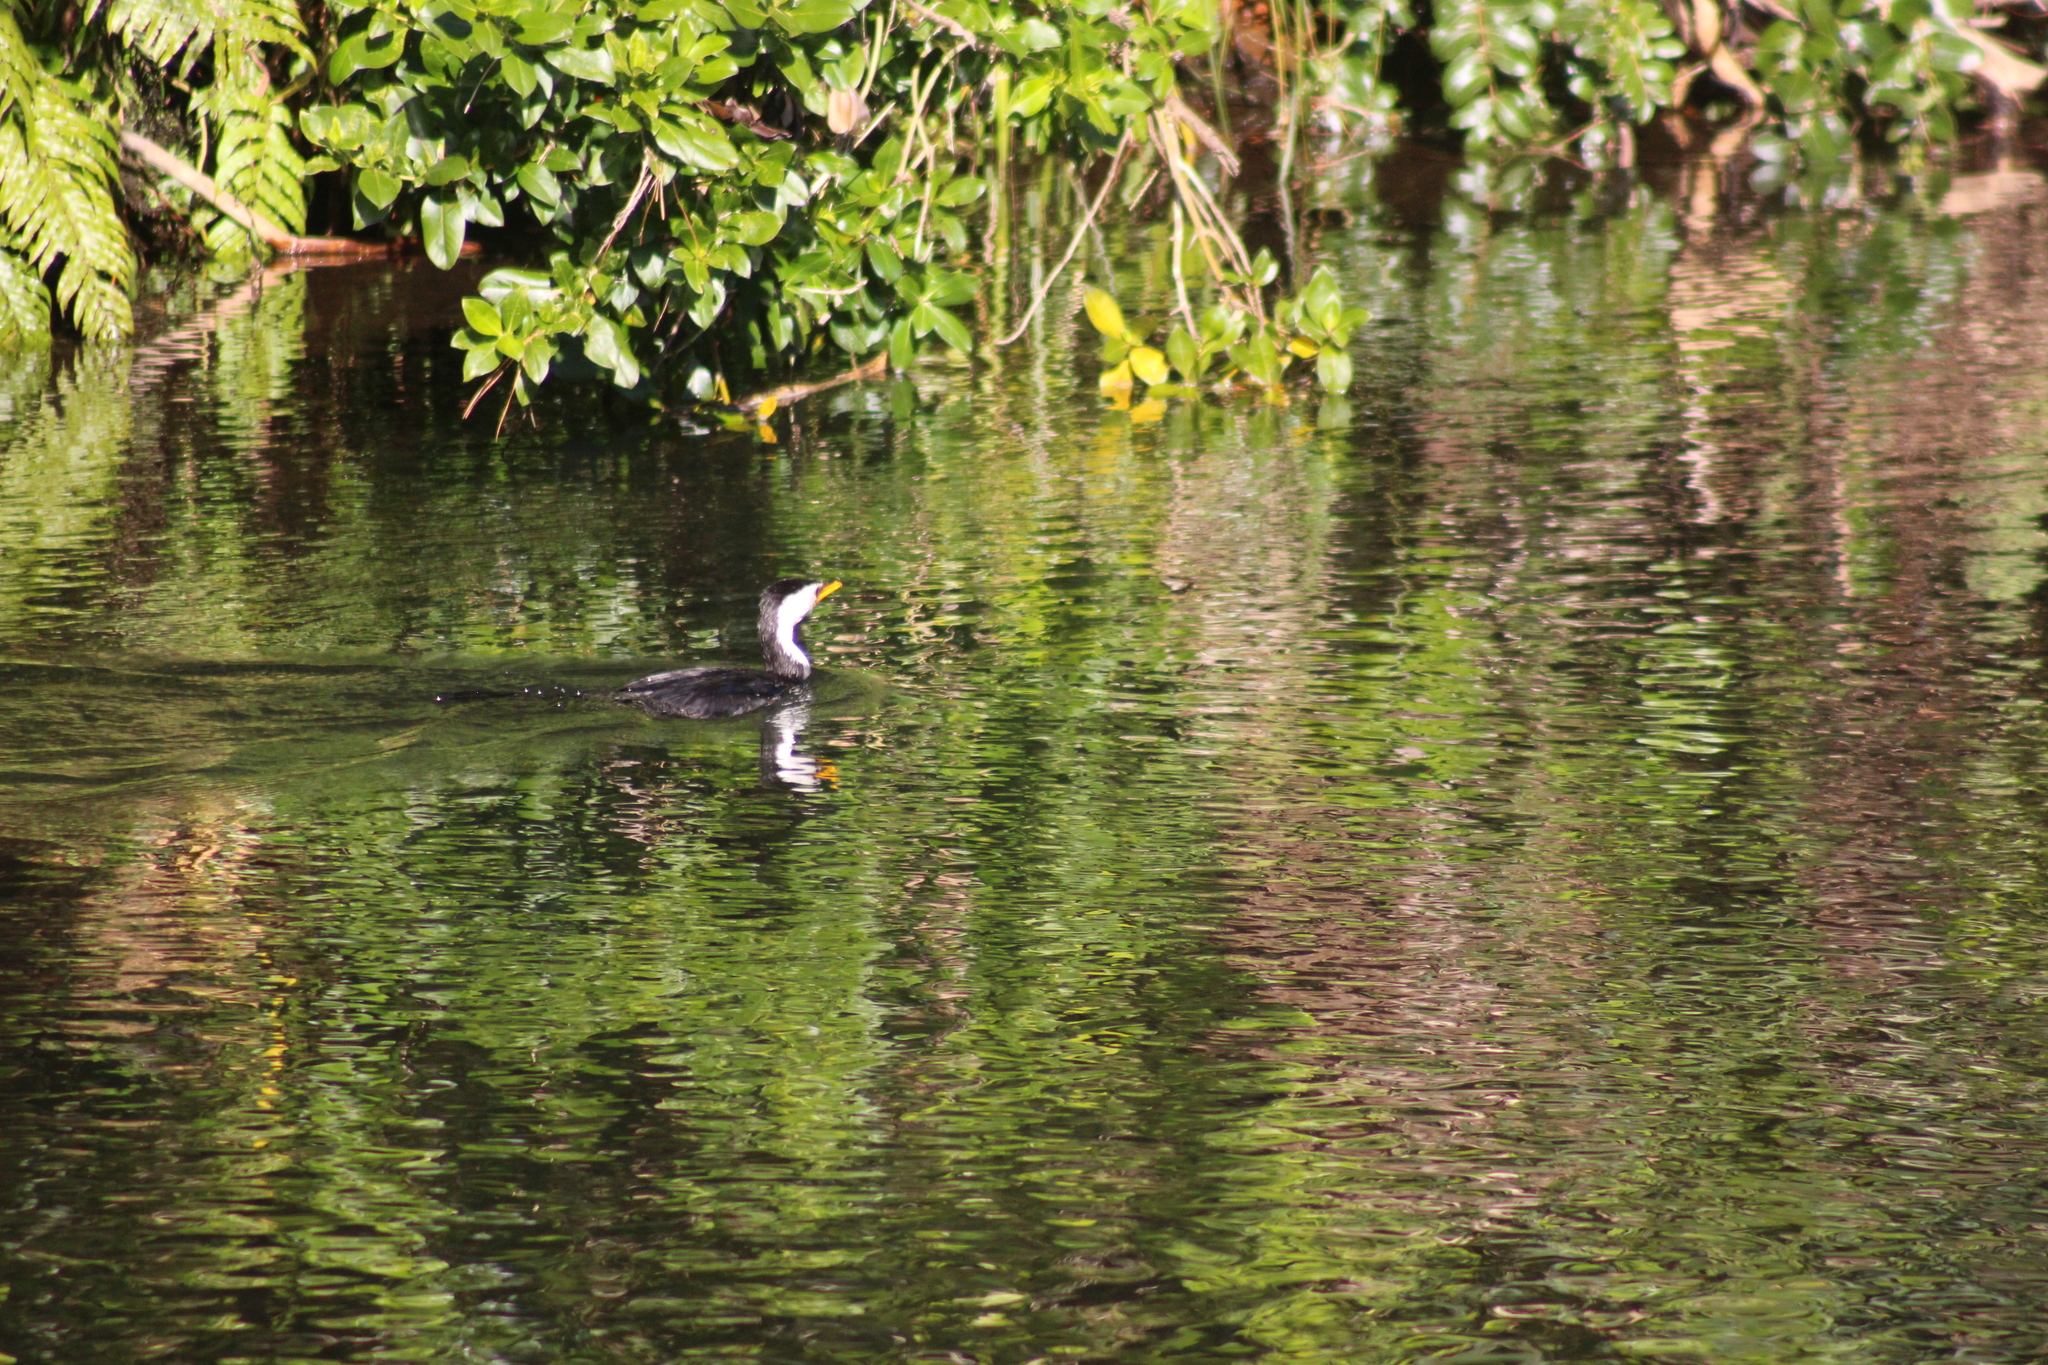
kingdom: Animalia
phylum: Chordata
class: Aves
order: Suliformes
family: Phalacrocoracidae
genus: Microcarbo
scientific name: Microcarbo melanoleucos
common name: Little pied cormorant
